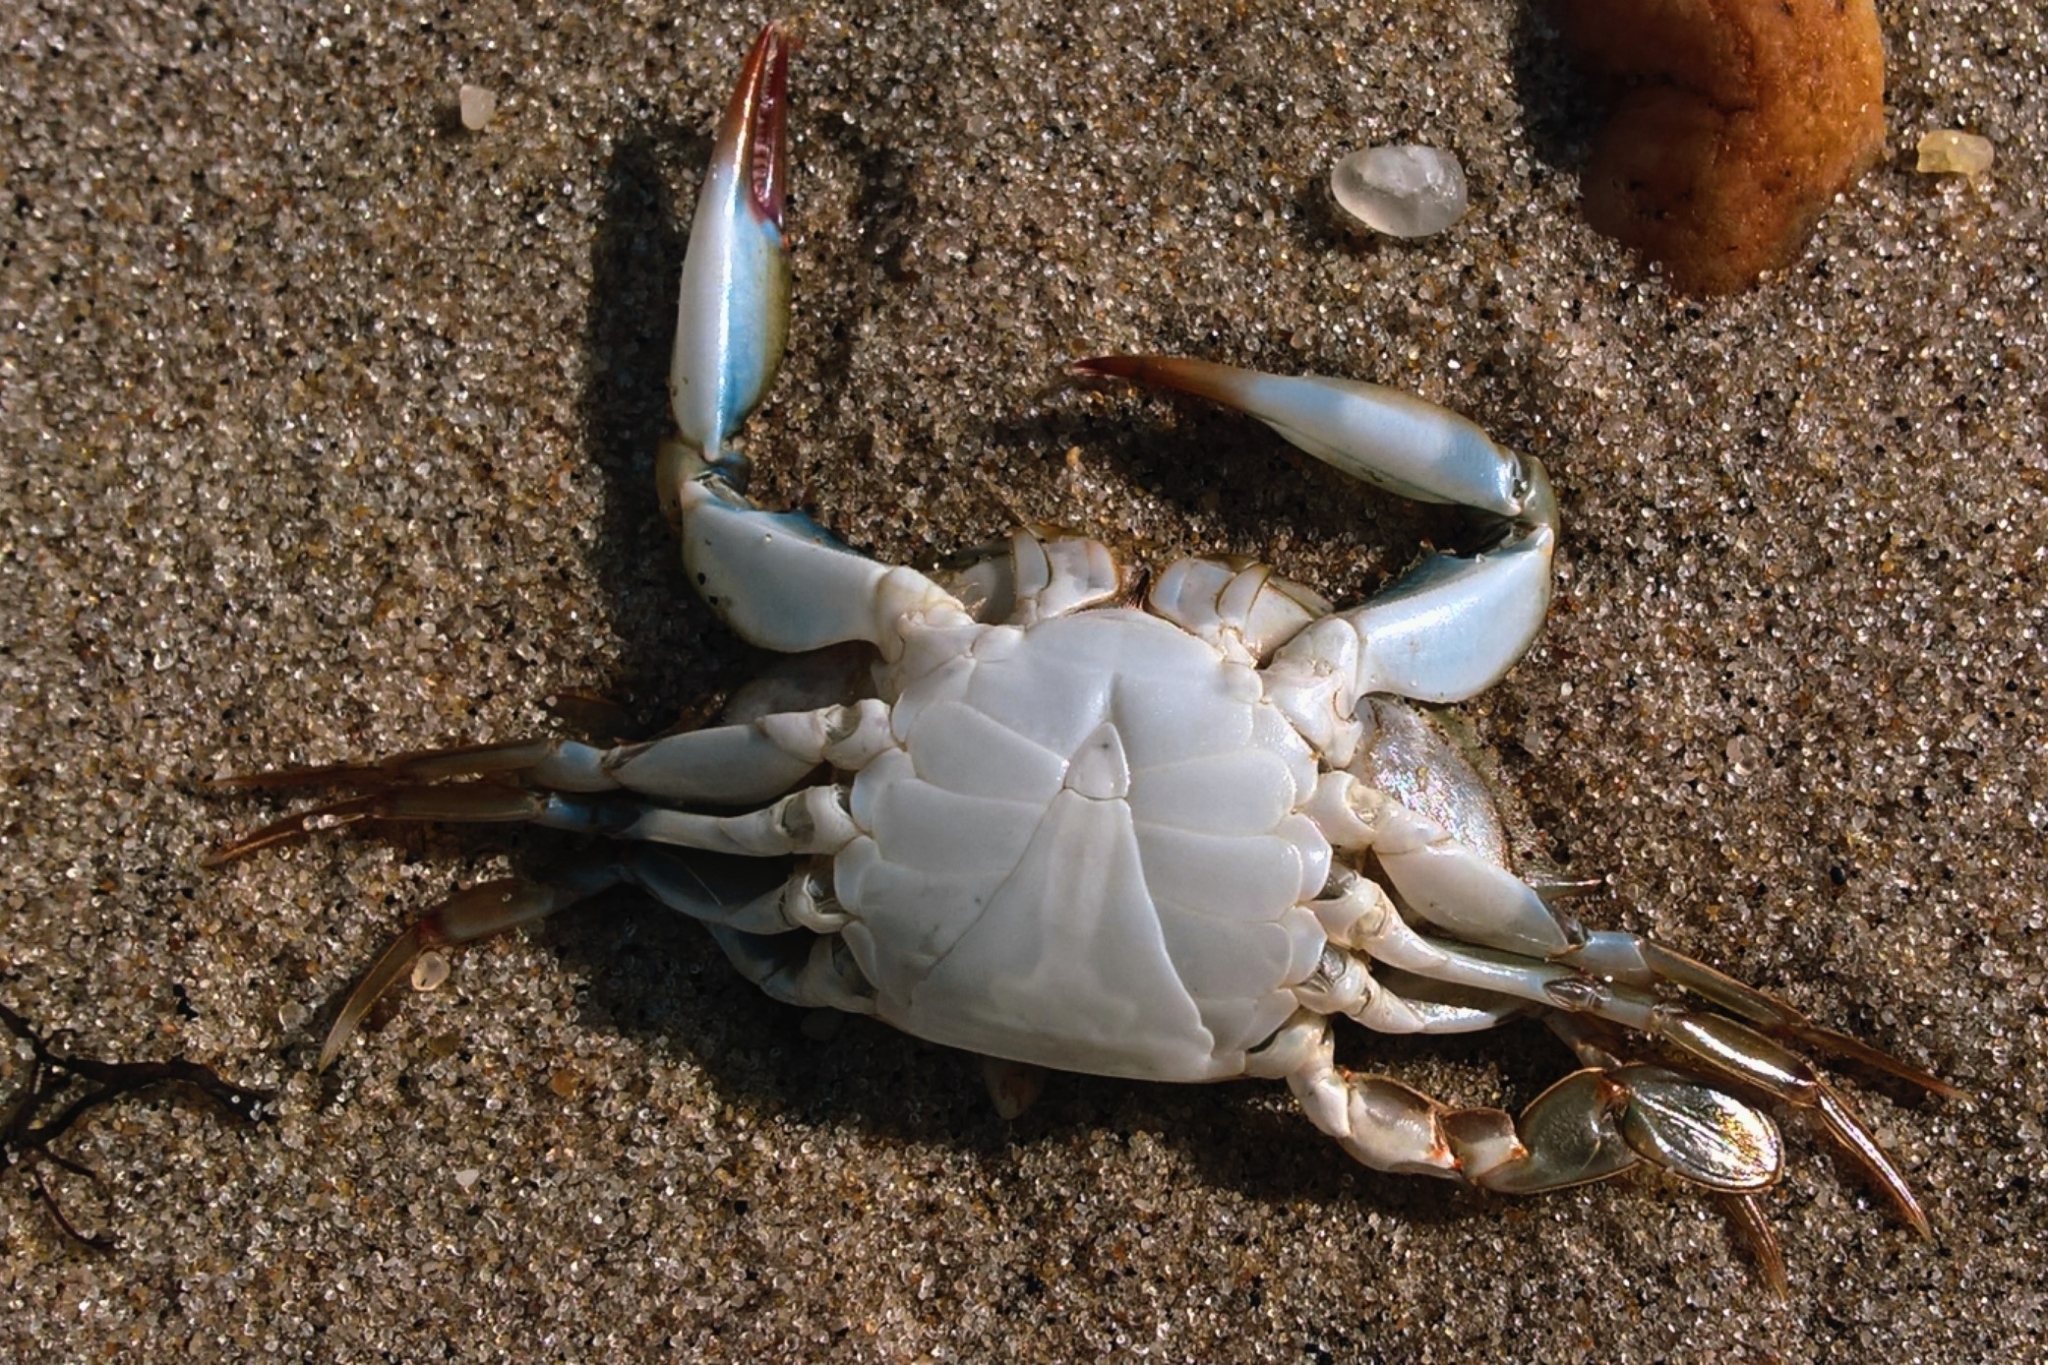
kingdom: Animalia
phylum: Arthropoda
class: Malacostraca
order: Decapoda
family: Portunidae
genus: Callinectes
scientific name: Callinectes sapidus
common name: Blue crab
